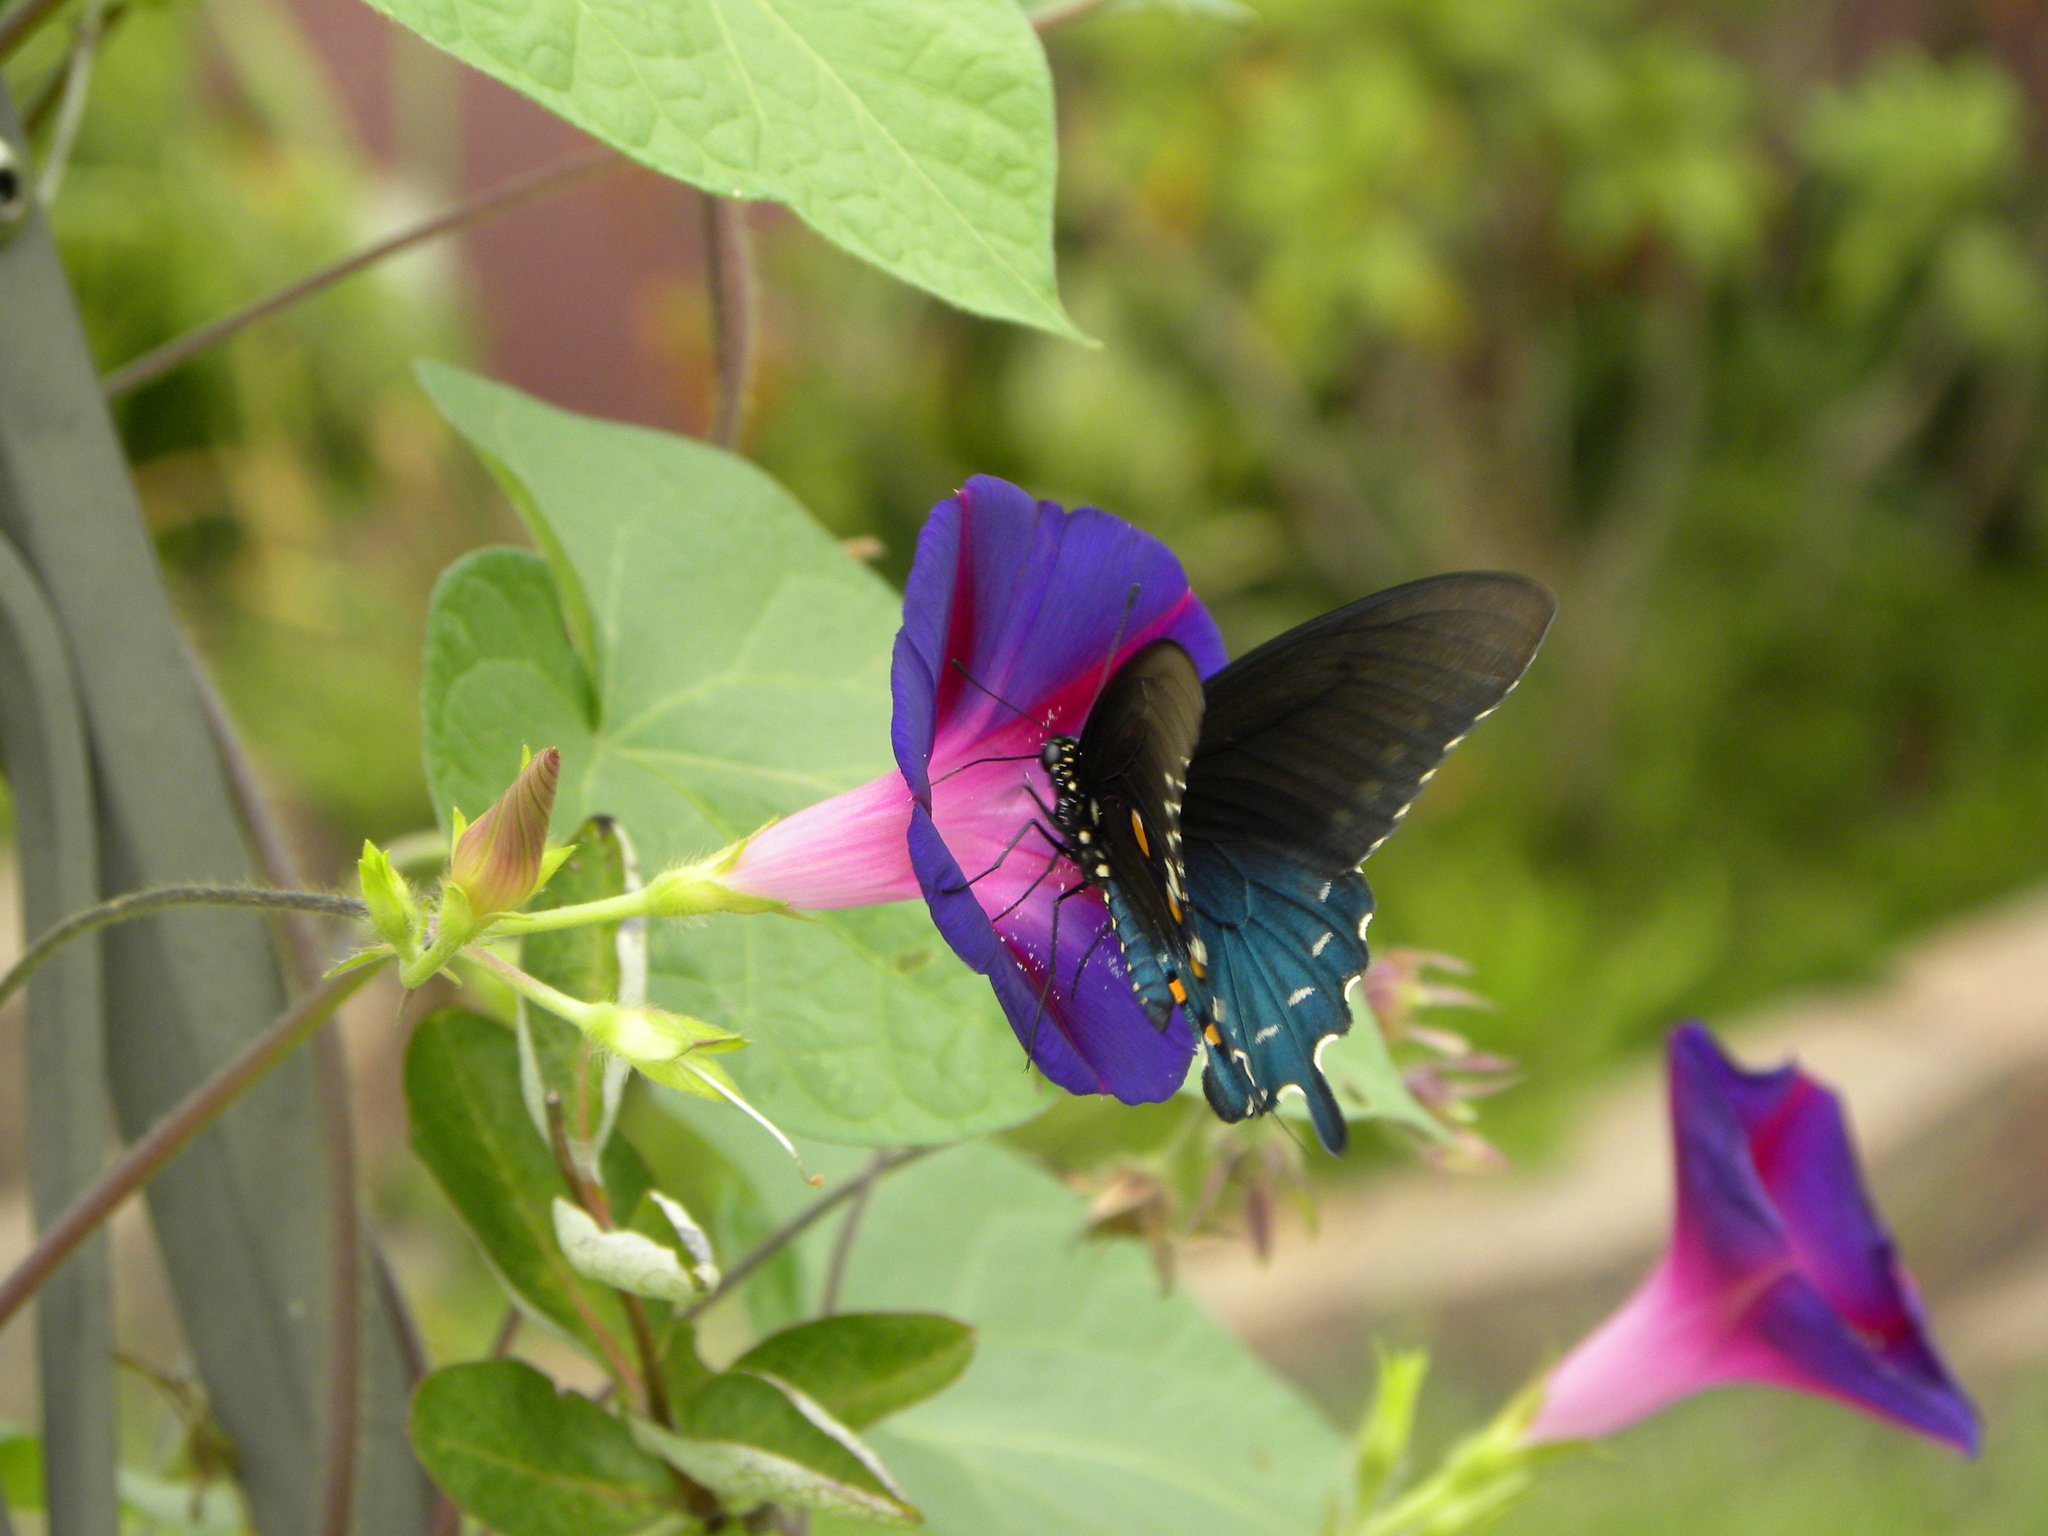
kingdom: Animalia
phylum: Arthropoda
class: Insecta
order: Lepidoptera
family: Papilionidae
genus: Battus
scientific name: Battus philenor
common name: Pipevine swallowtail
